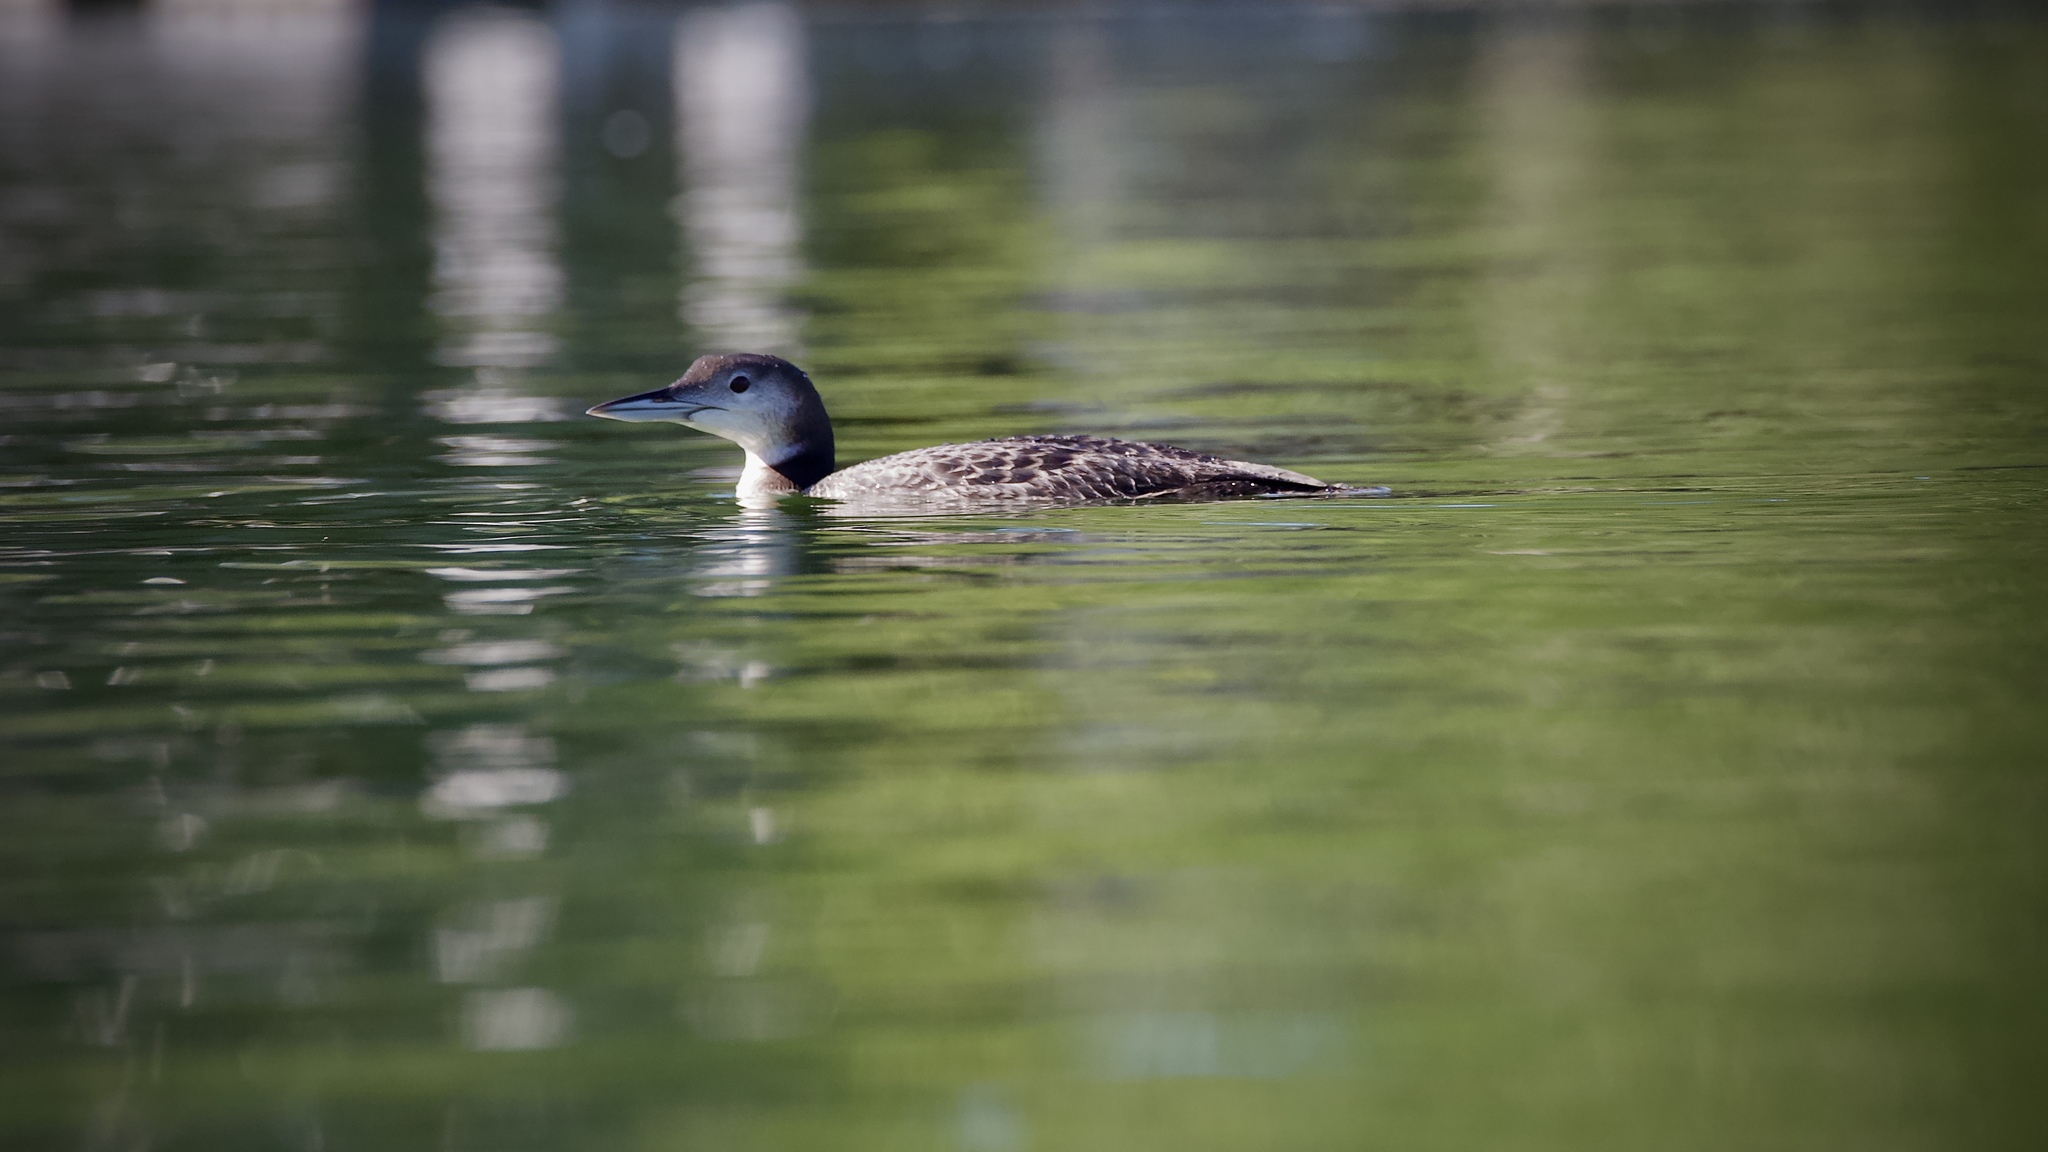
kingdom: Animalia
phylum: Chordata
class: Aves
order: Gaviiformes
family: Gaviidae
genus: Gavia
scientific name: Gavia immer
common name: Common loon
